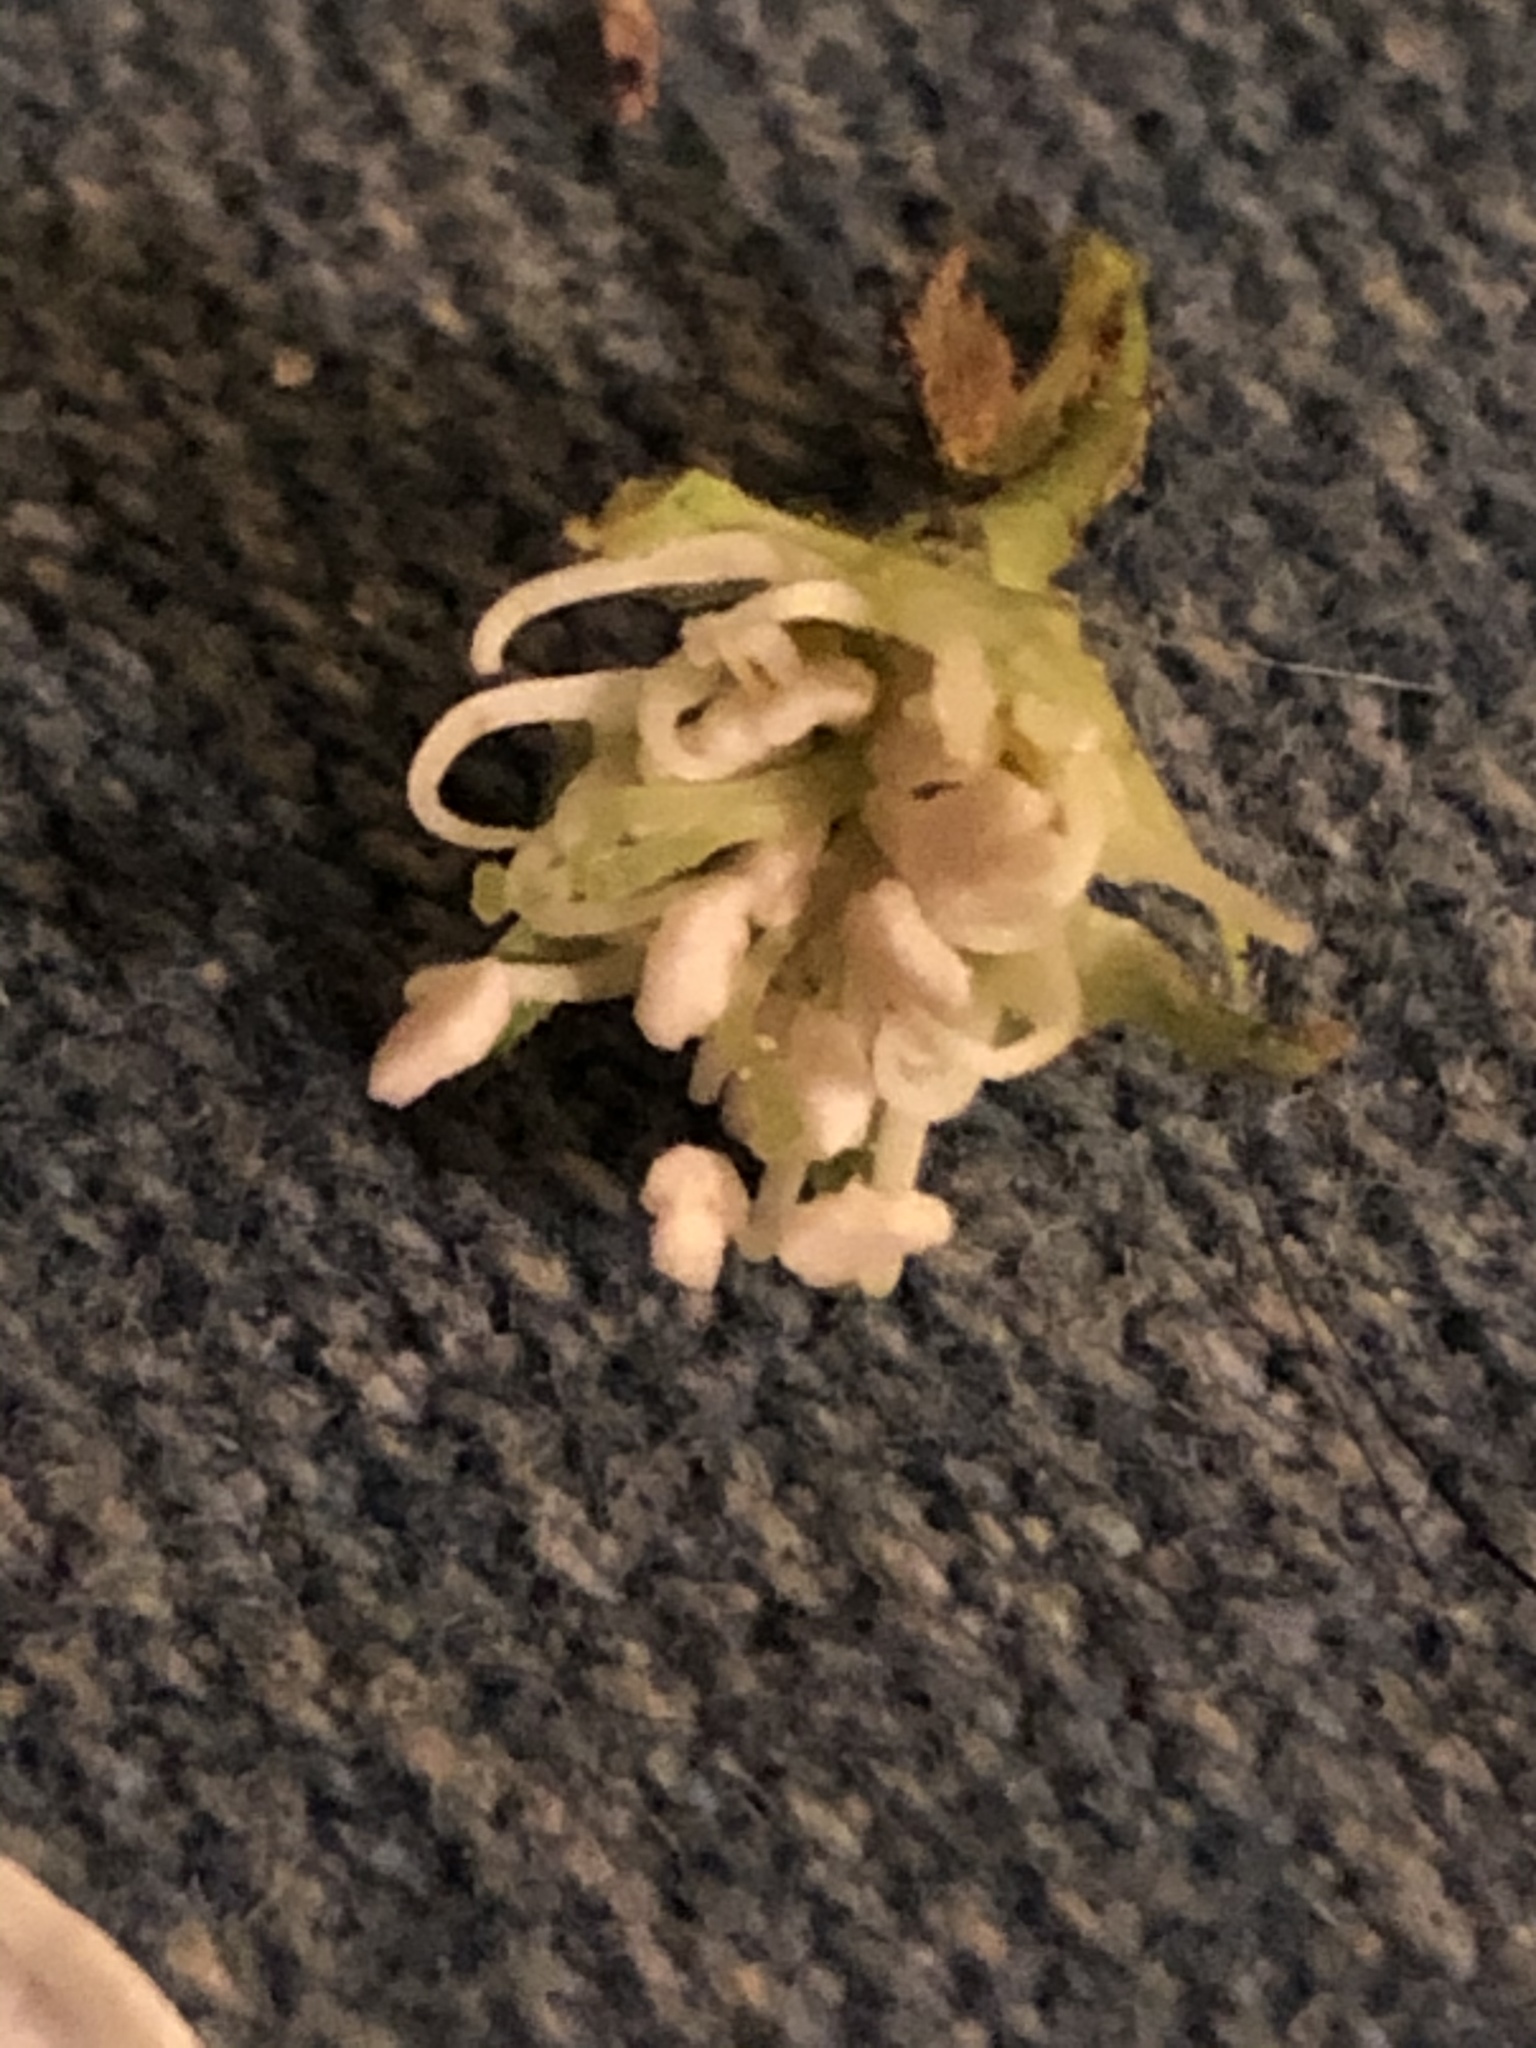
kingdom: Plantae
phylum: Tracheophyta
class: Magnoliopsida
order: Rosales
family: Rosaceae
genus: Crataegus
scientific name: Crataegus pulcherrima
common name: Beautiful hawthorn
